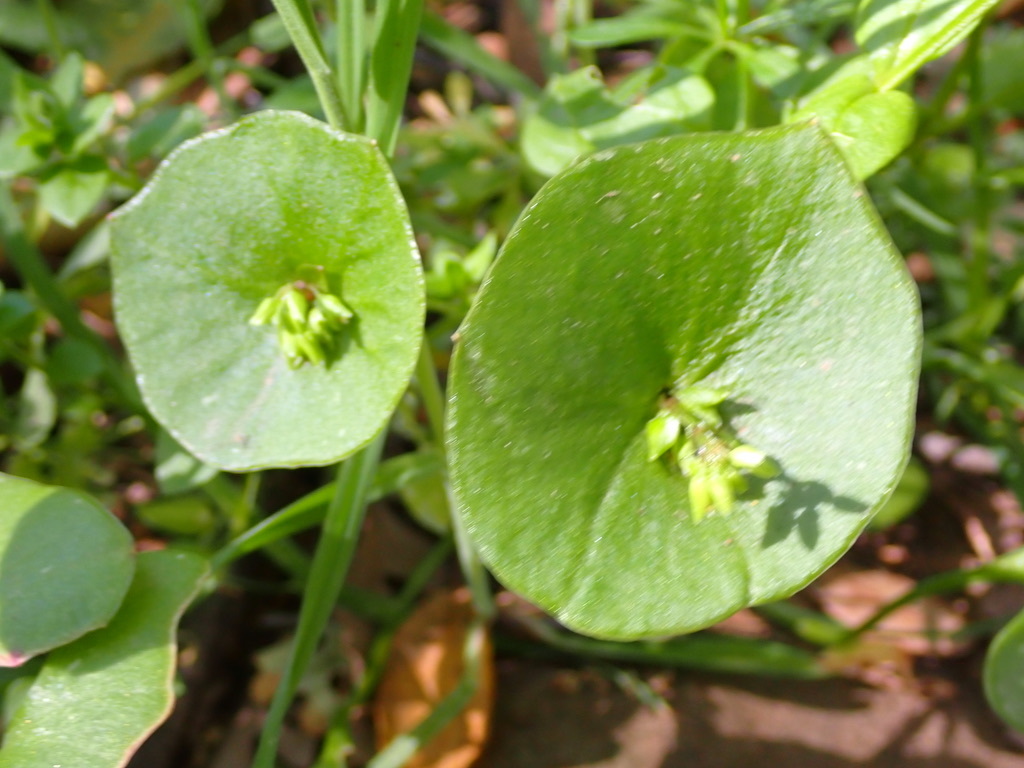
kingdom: Plantae
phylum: Tracheophyta
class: Magnoliopsida
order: Caryophyllales
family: Montiaceae
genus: Claytonia
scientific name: Claytonia perfoliata
